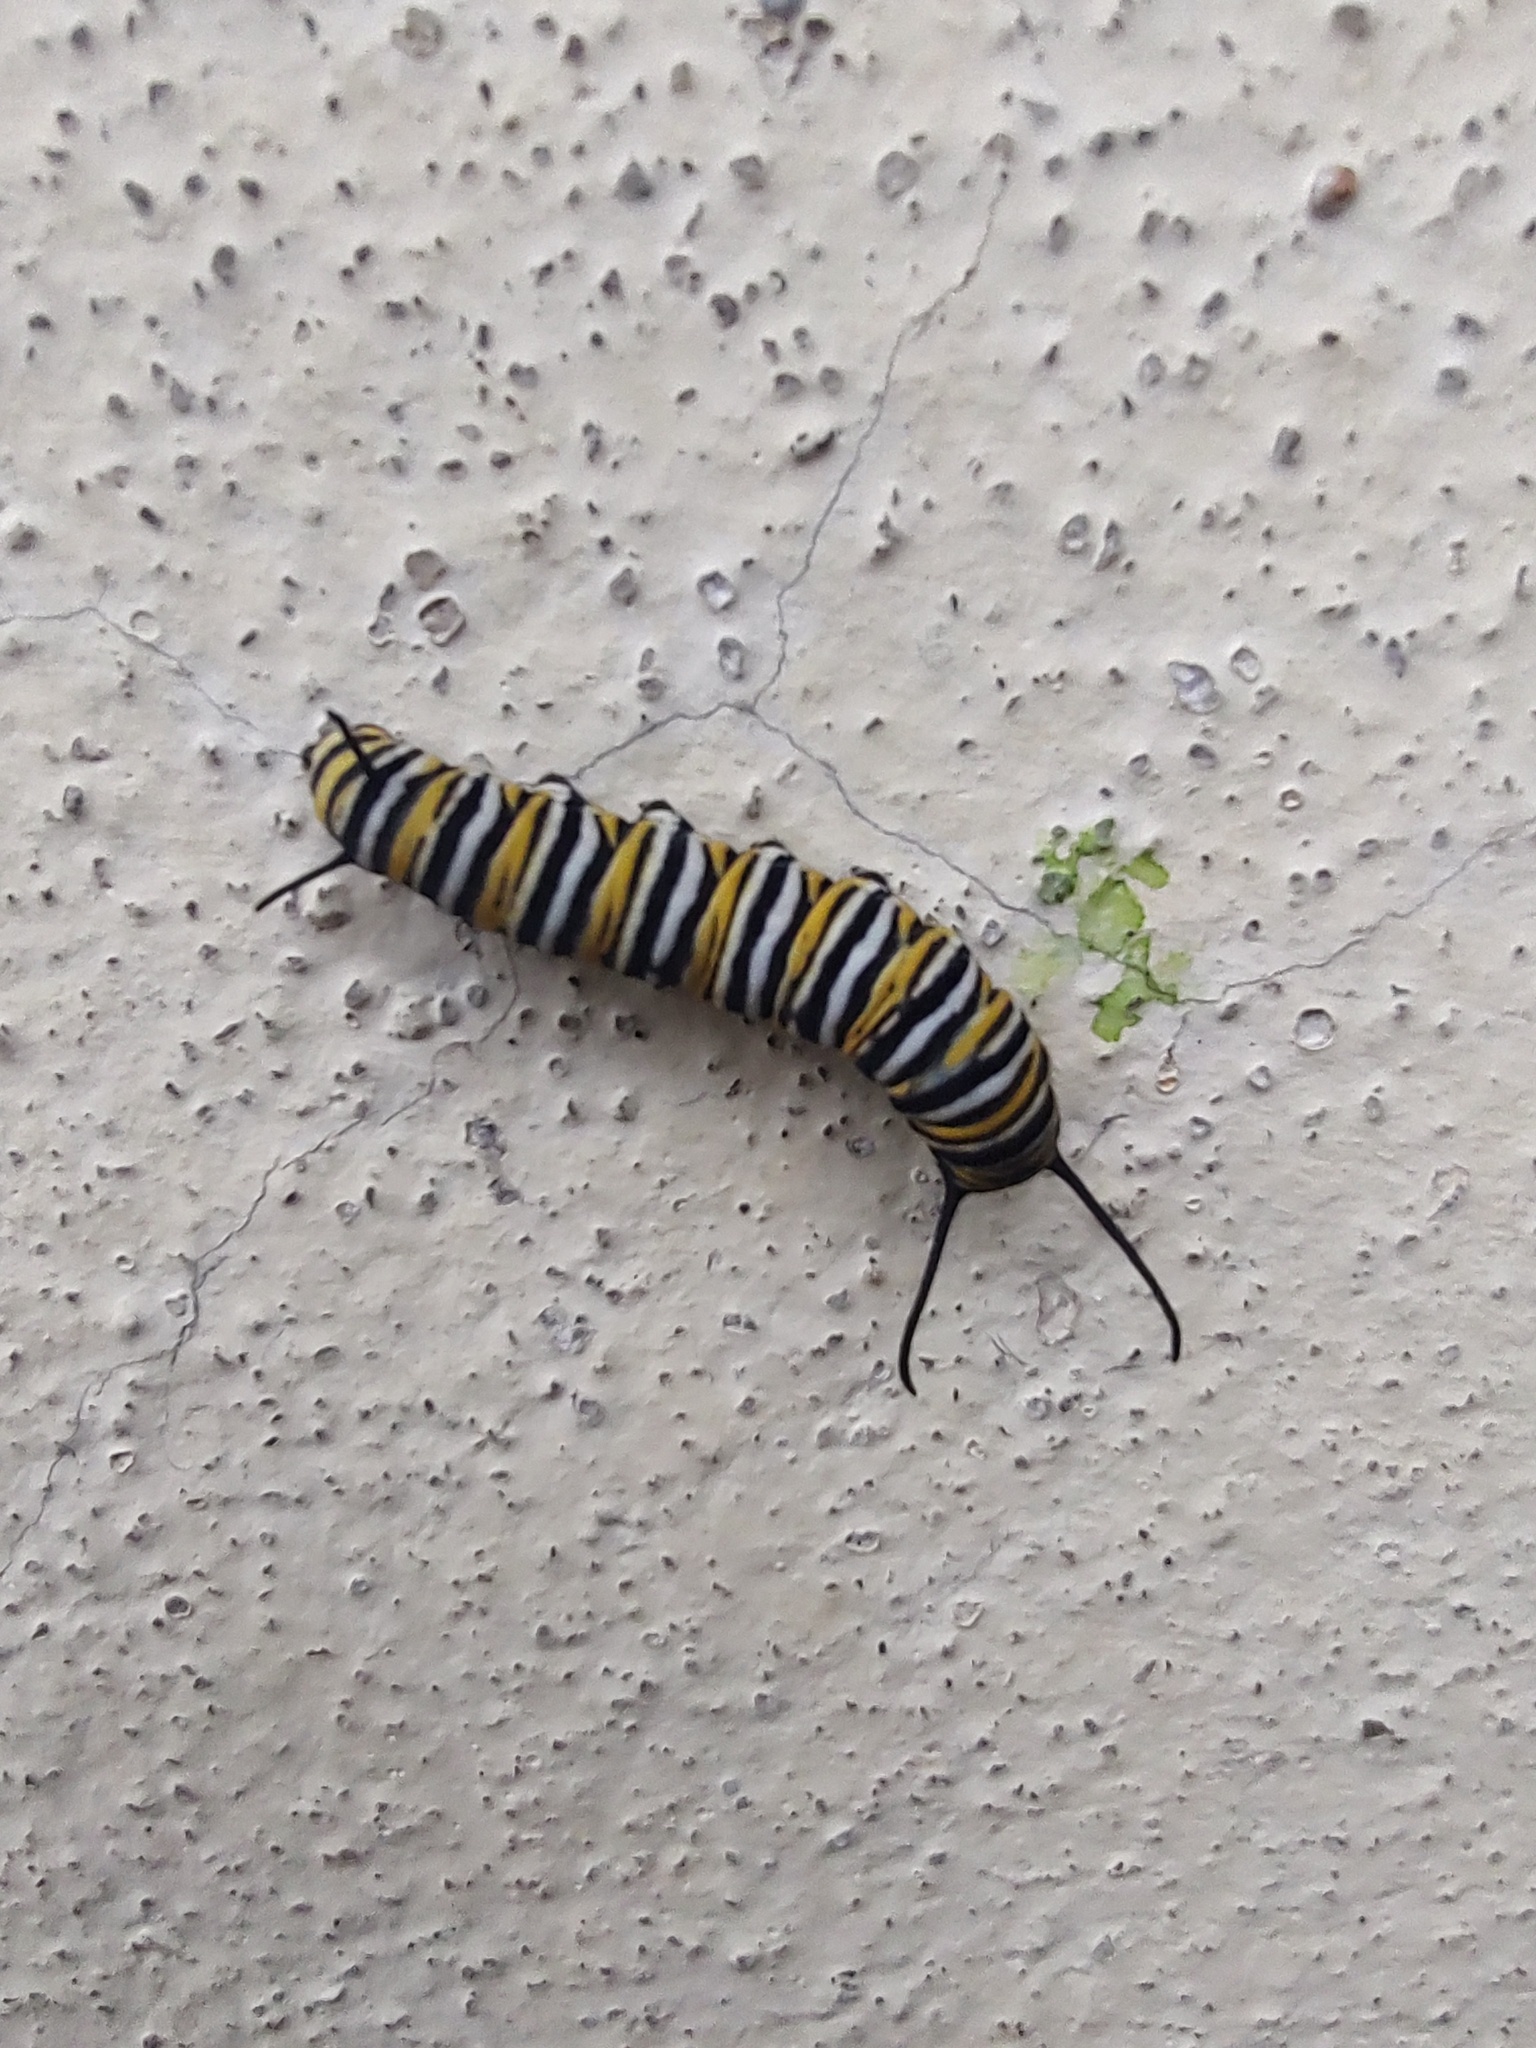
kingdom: Animalia
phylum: Arthropoda
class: Insecta
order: Lepidoptera
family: Nymphalidae
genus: Danaus
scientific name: Danaus plexippus
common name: Monarch
